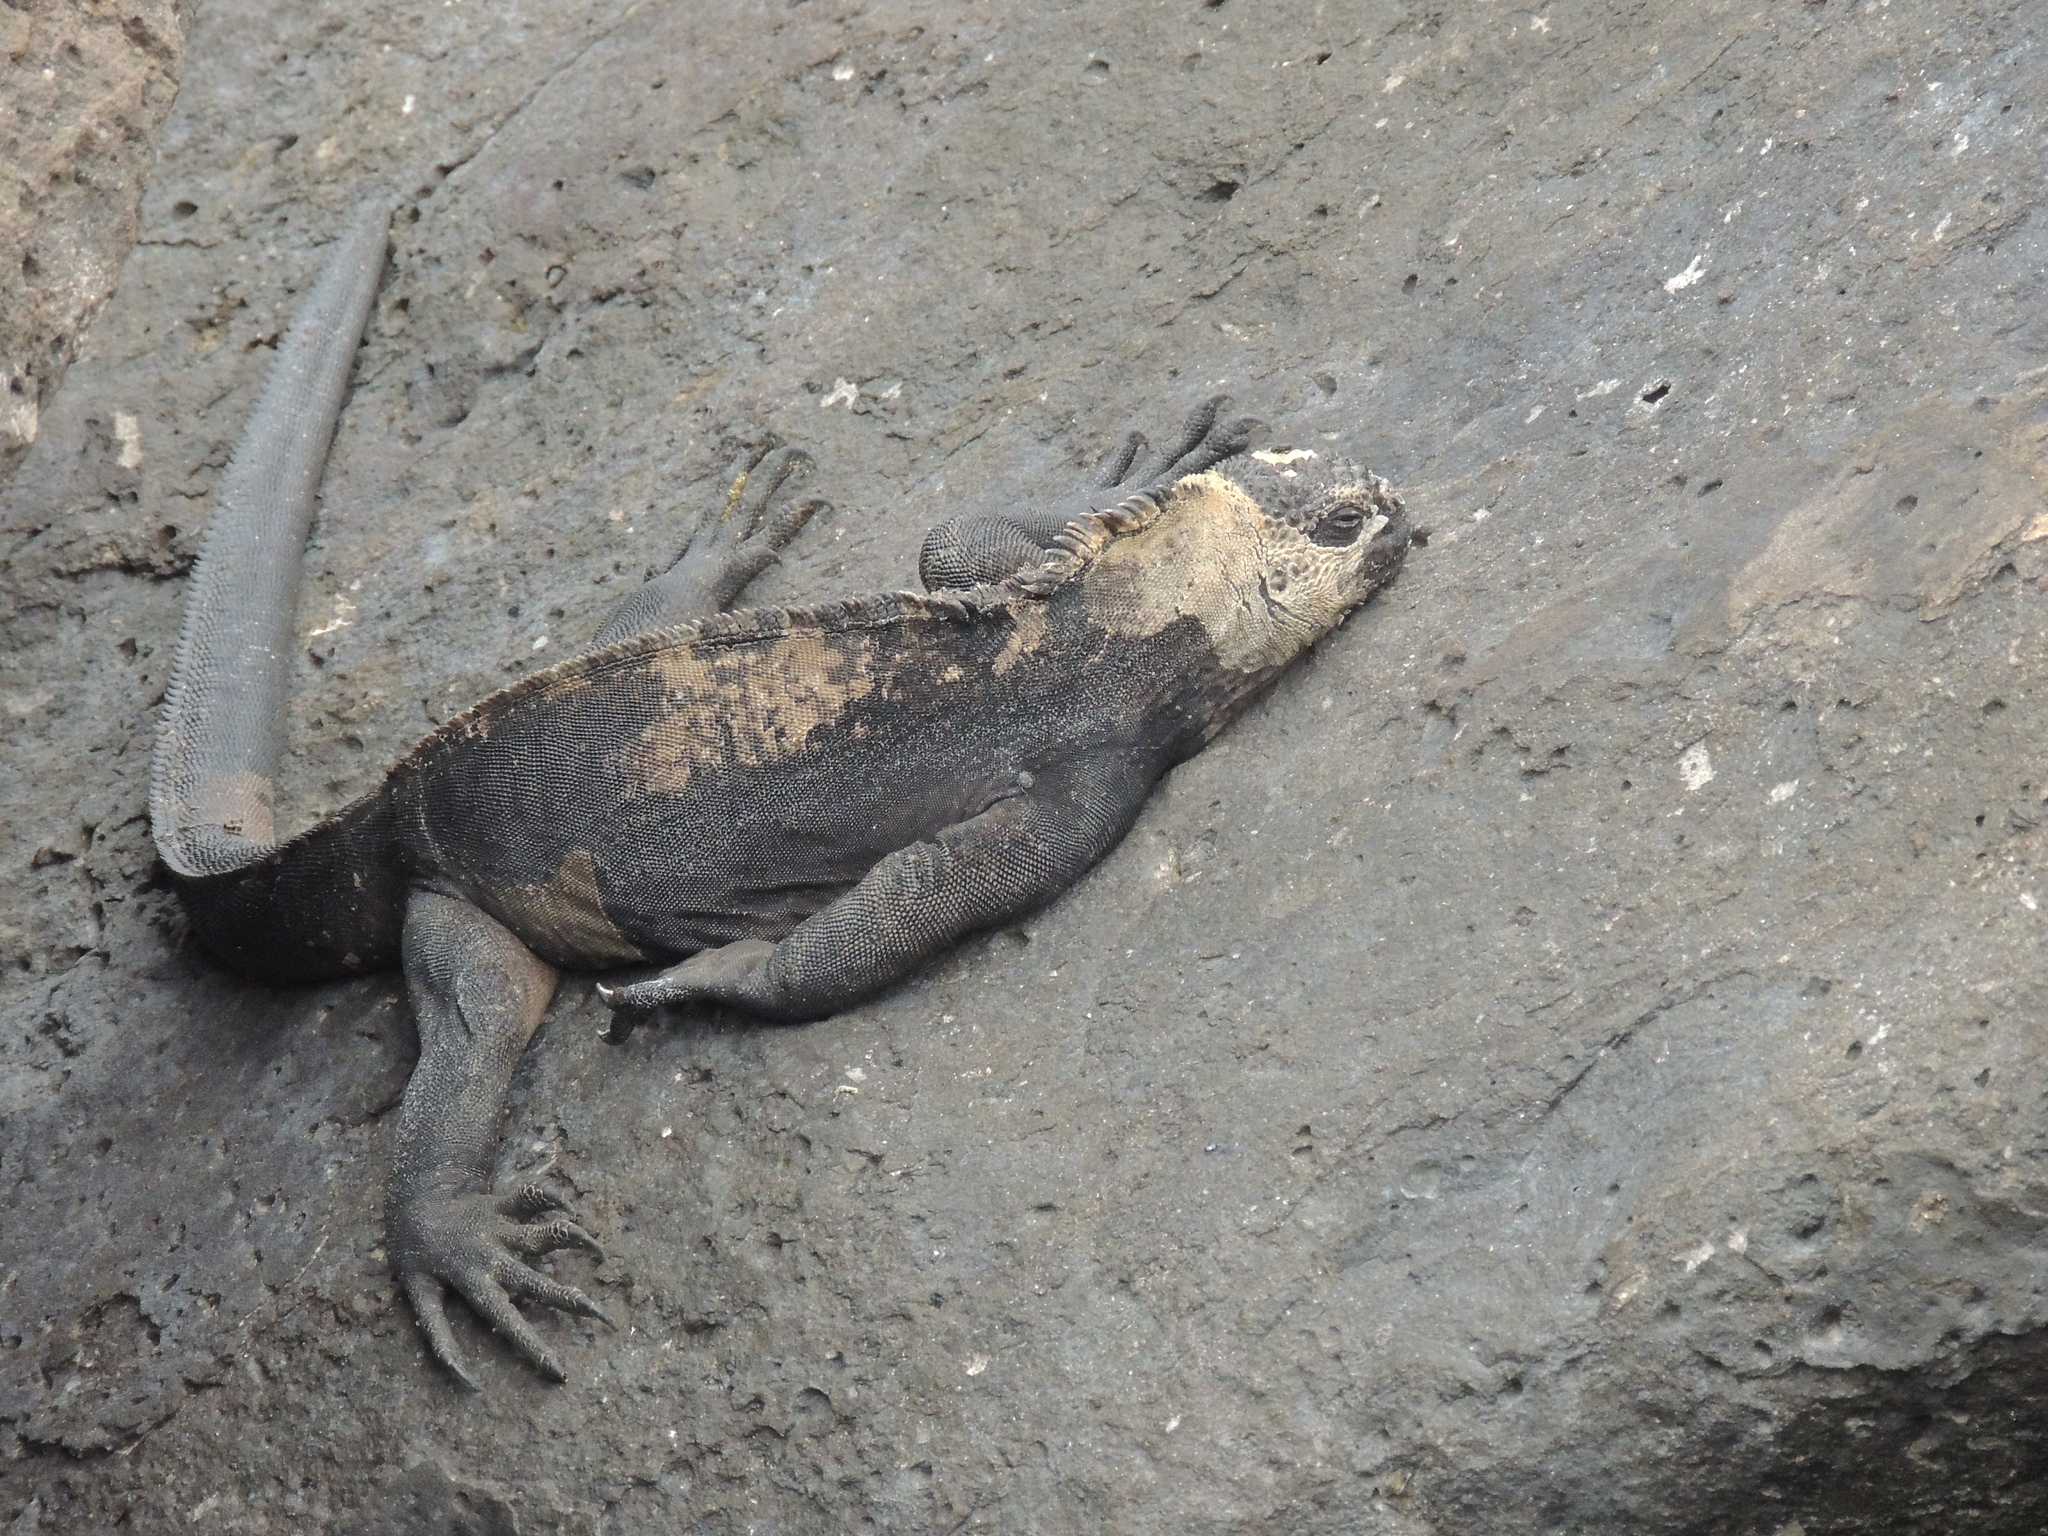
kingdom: Animalia
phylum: Chordata
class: Squamata
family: Iguanidae
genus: Amblyrhynchus
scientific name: Amblyrhynchus cristatus
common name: Marine iguana
